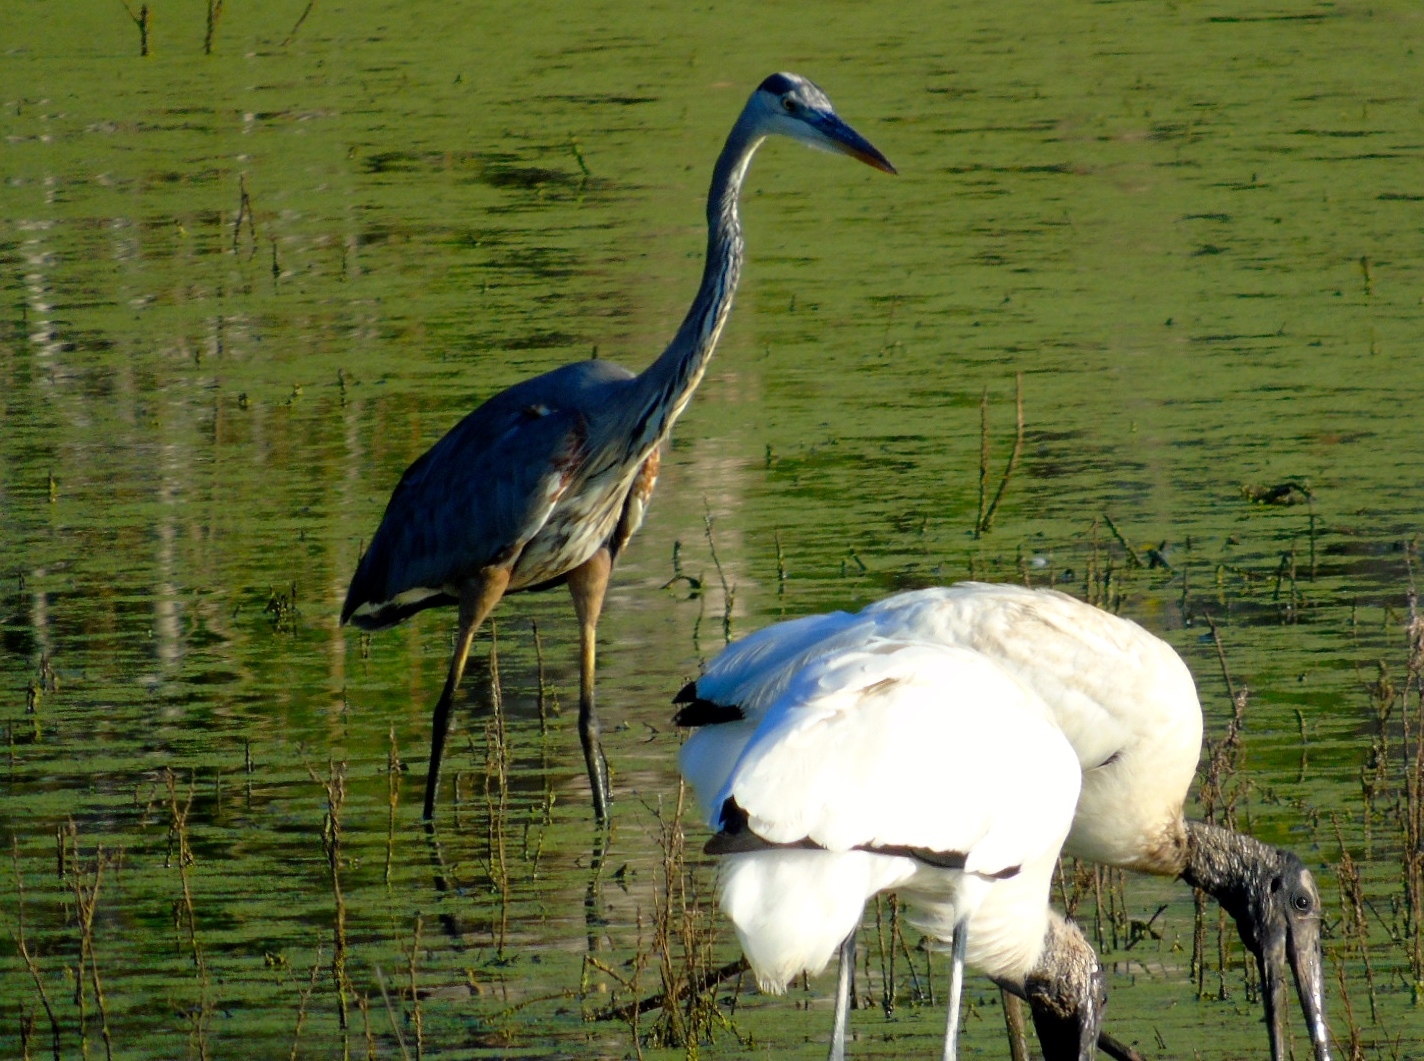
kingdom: Animalia
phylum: Chordata
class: Aves
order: Pelecaniformes
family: Ardeidae
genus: Ardea
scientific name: Ardea herodias
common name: Great blue heron
